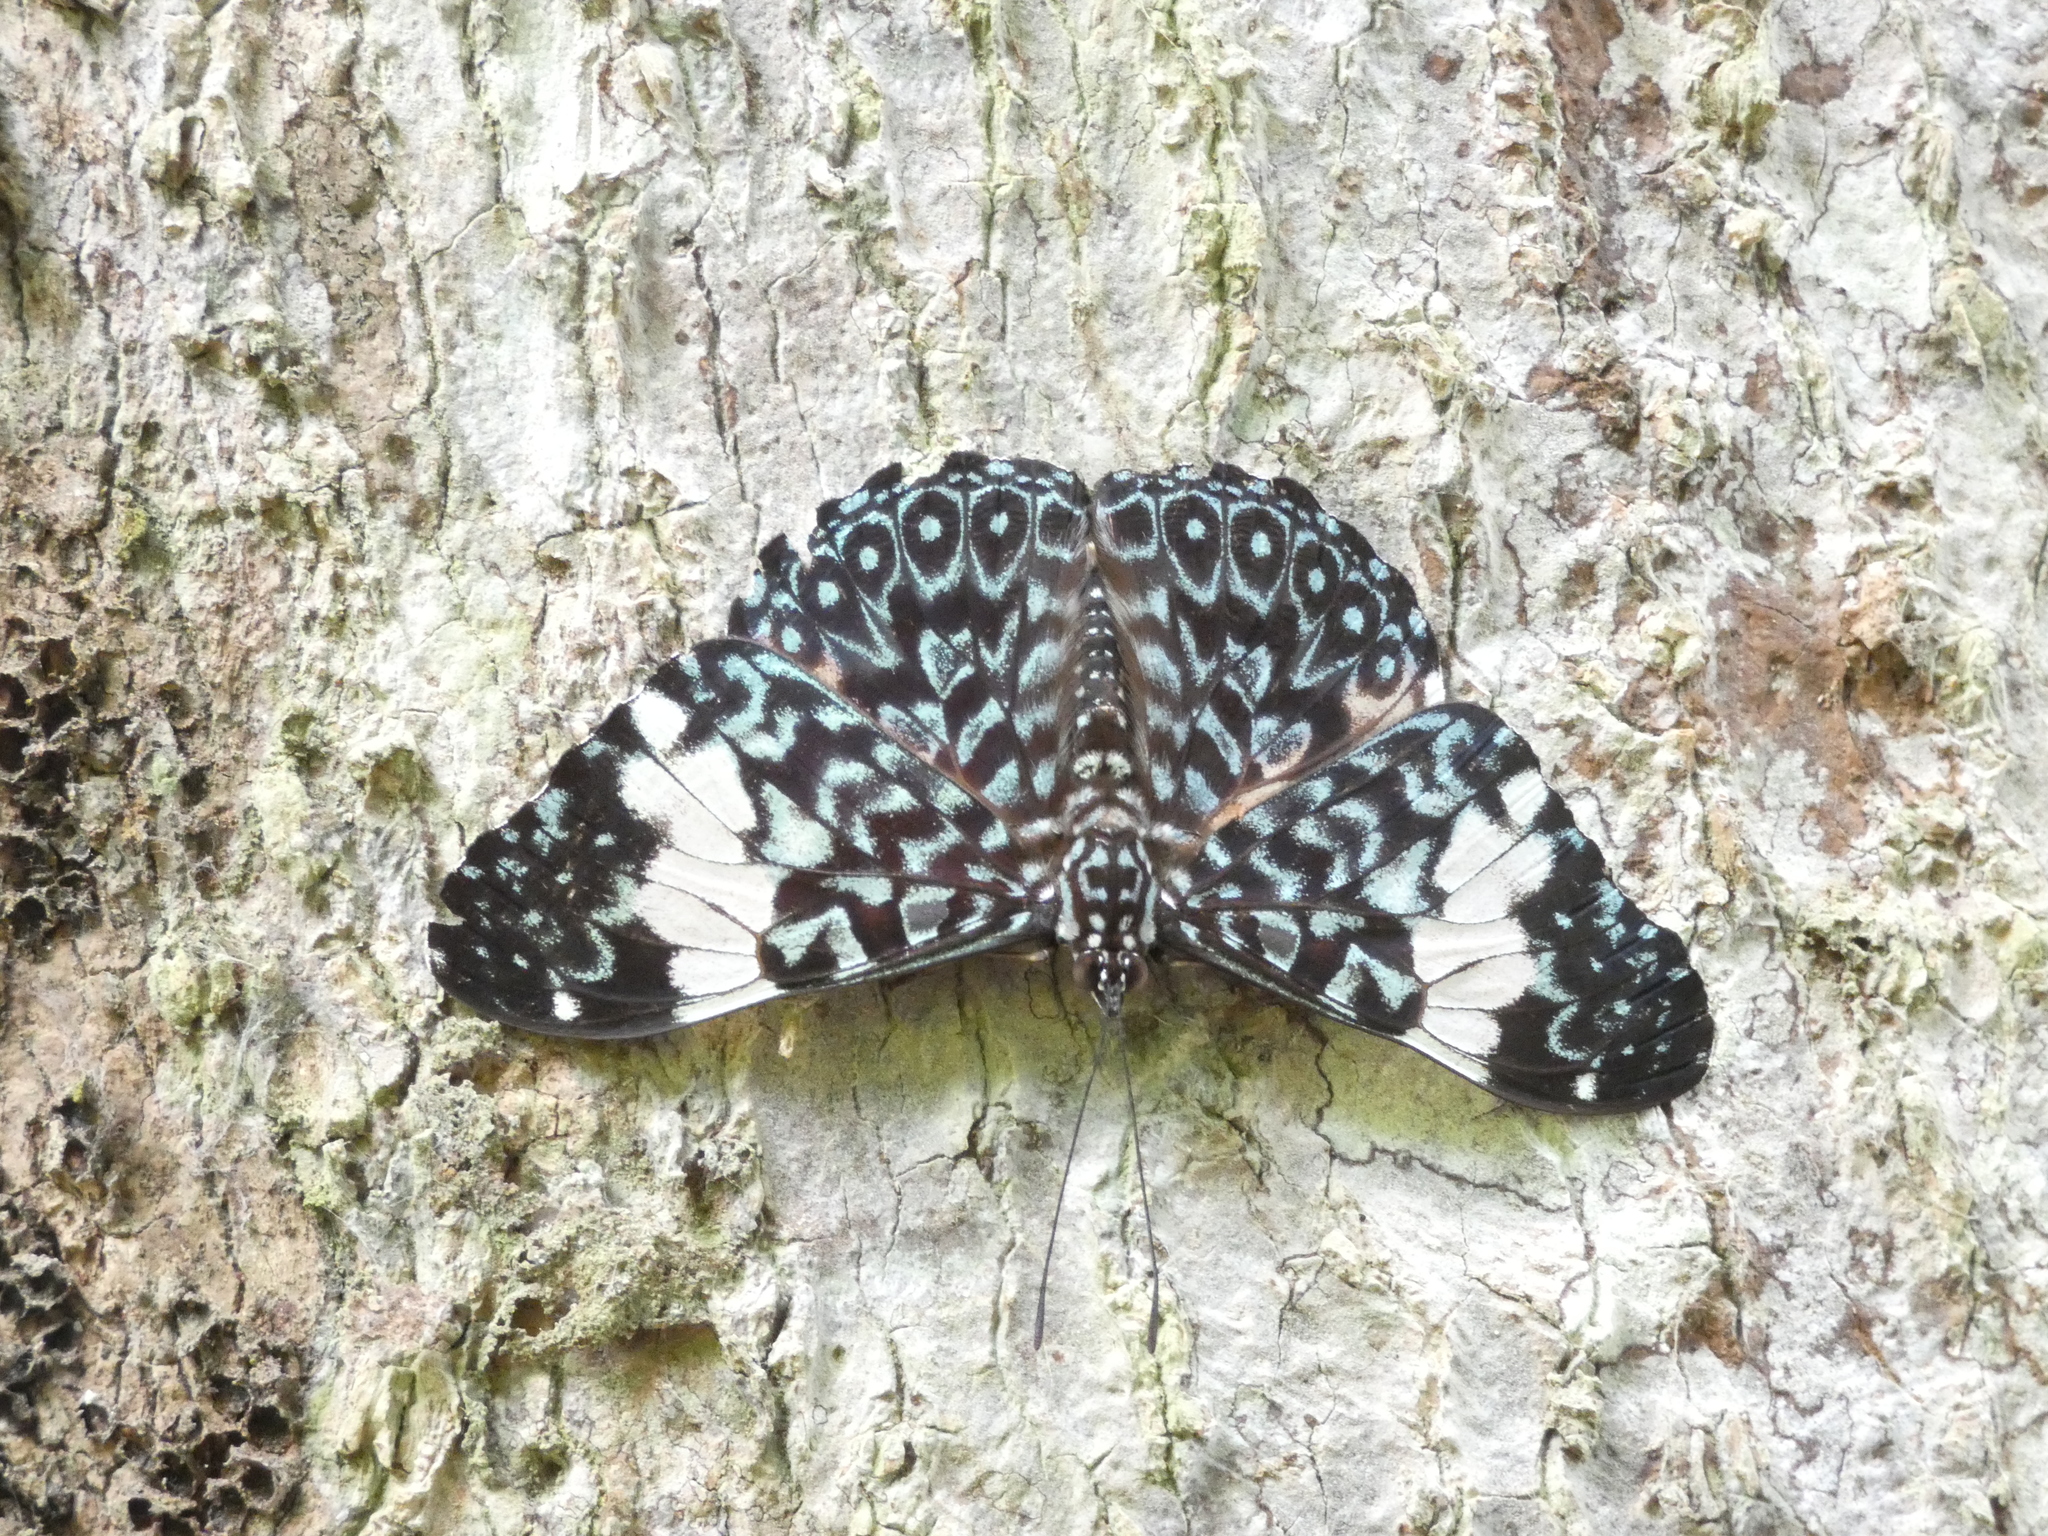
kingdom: Animalia
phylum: Arthropoda
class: Insecta
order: Lepidoptera
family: Nymphalidae
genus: Hamadryas
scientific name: Hamadryas amphinome
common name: Red cracker
